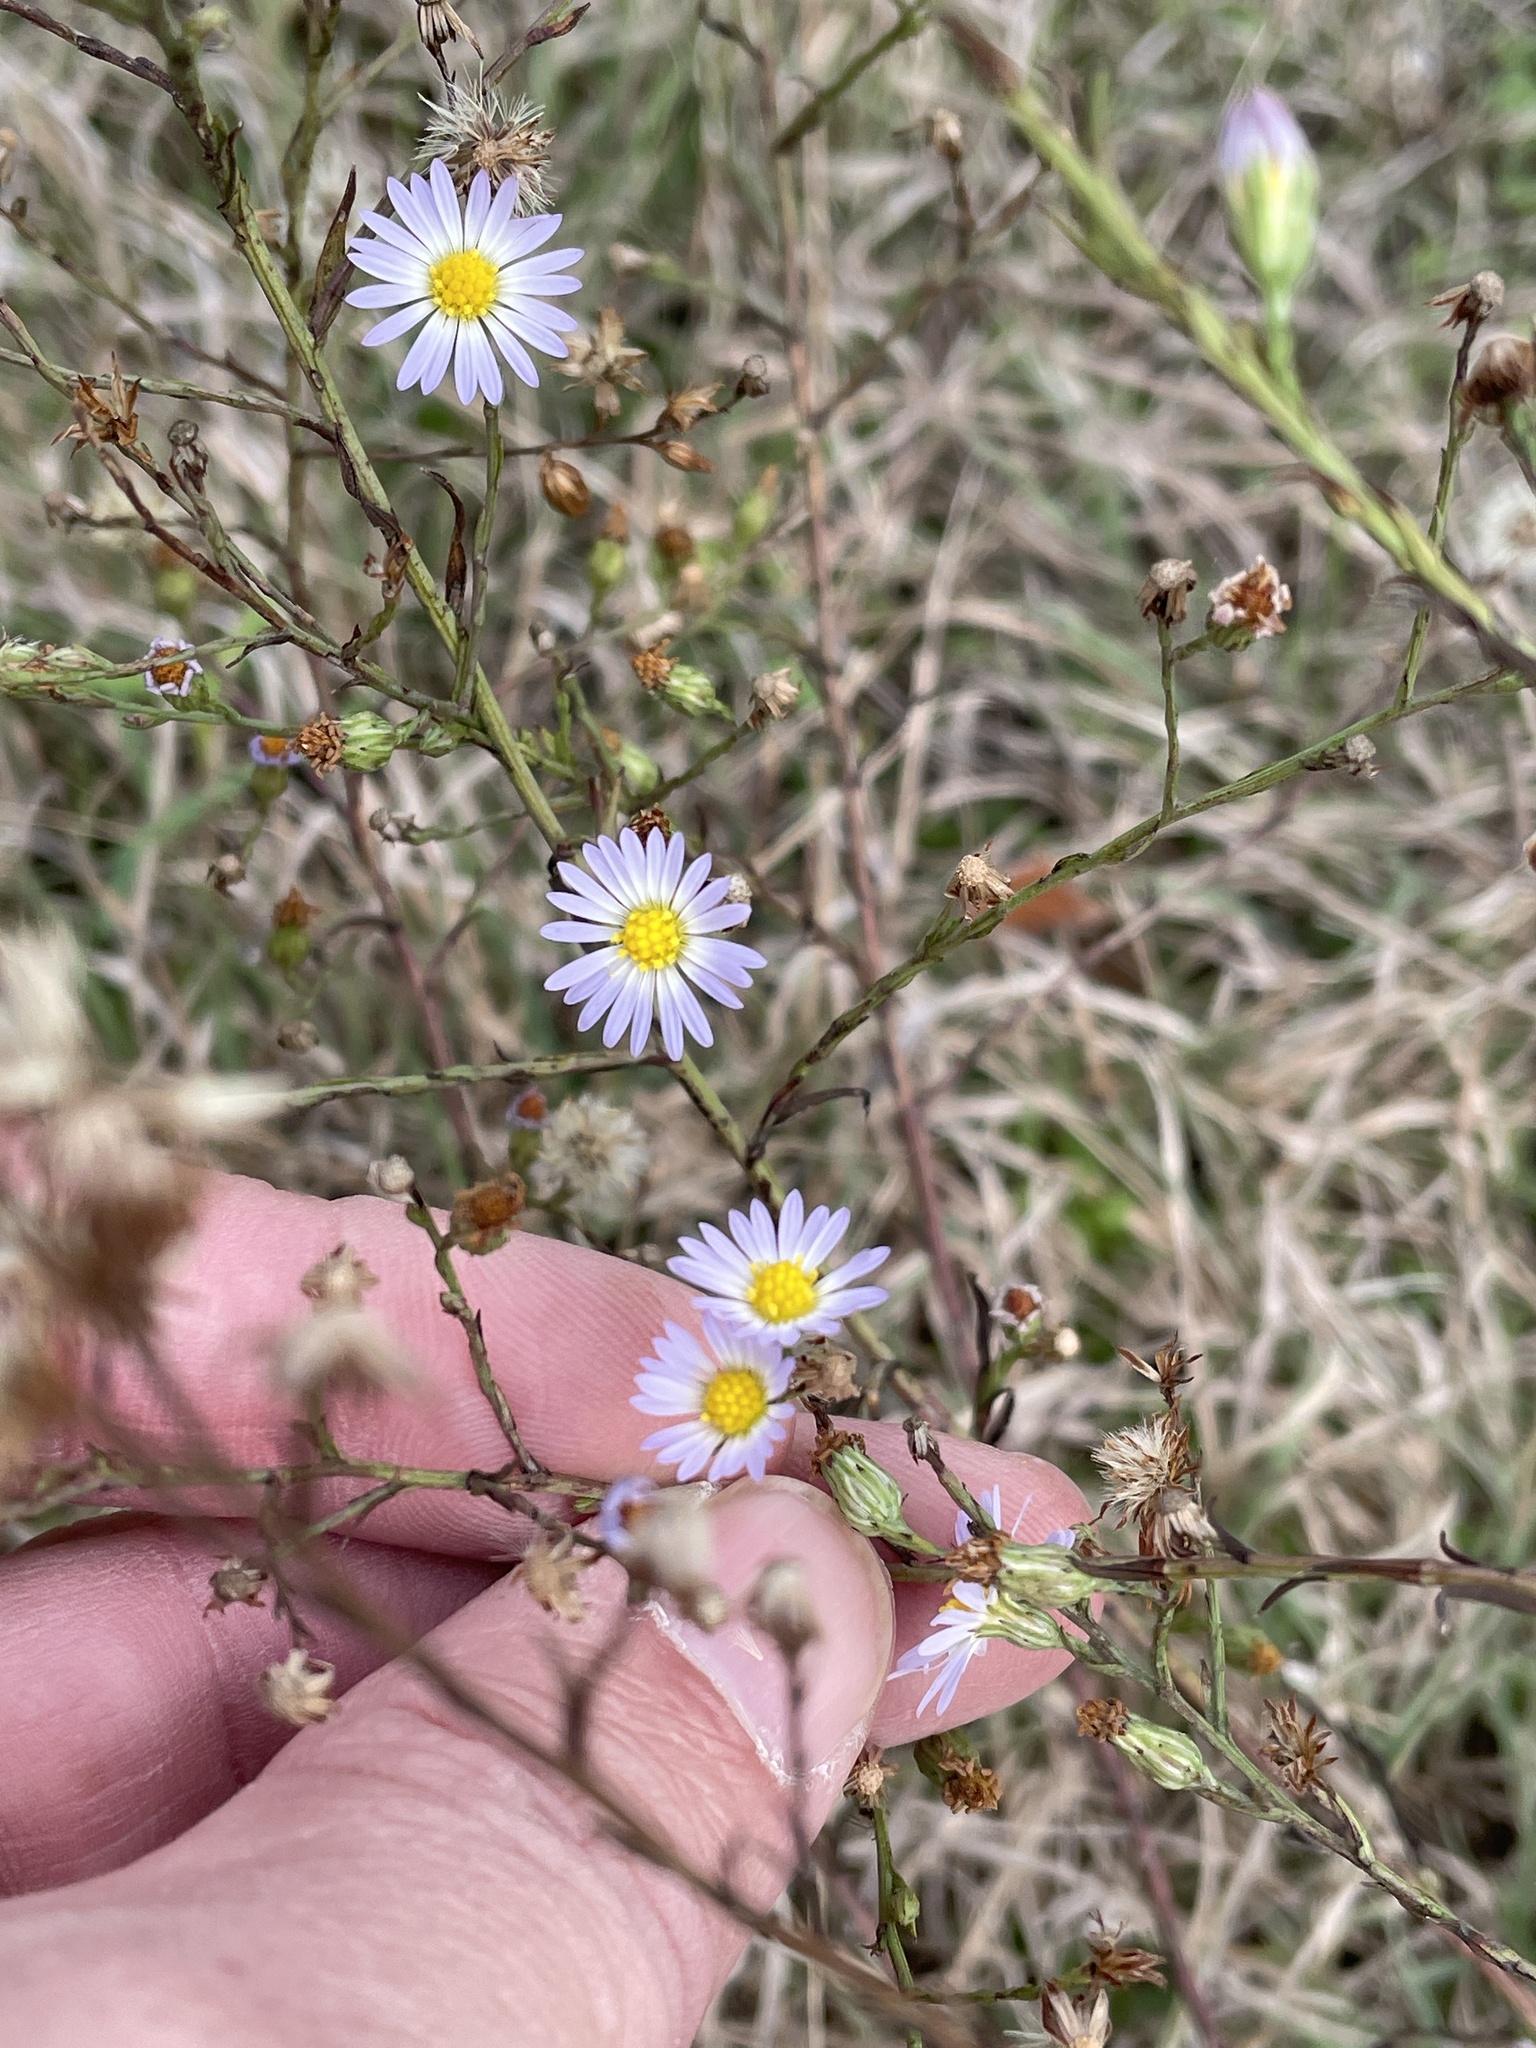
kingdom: Plantae
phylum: Tracheophyta
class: Magnoliopsida
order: Asterales
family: Asteraceae
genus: Symphyotrichum
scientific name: Symphyotrichum divaricatum
